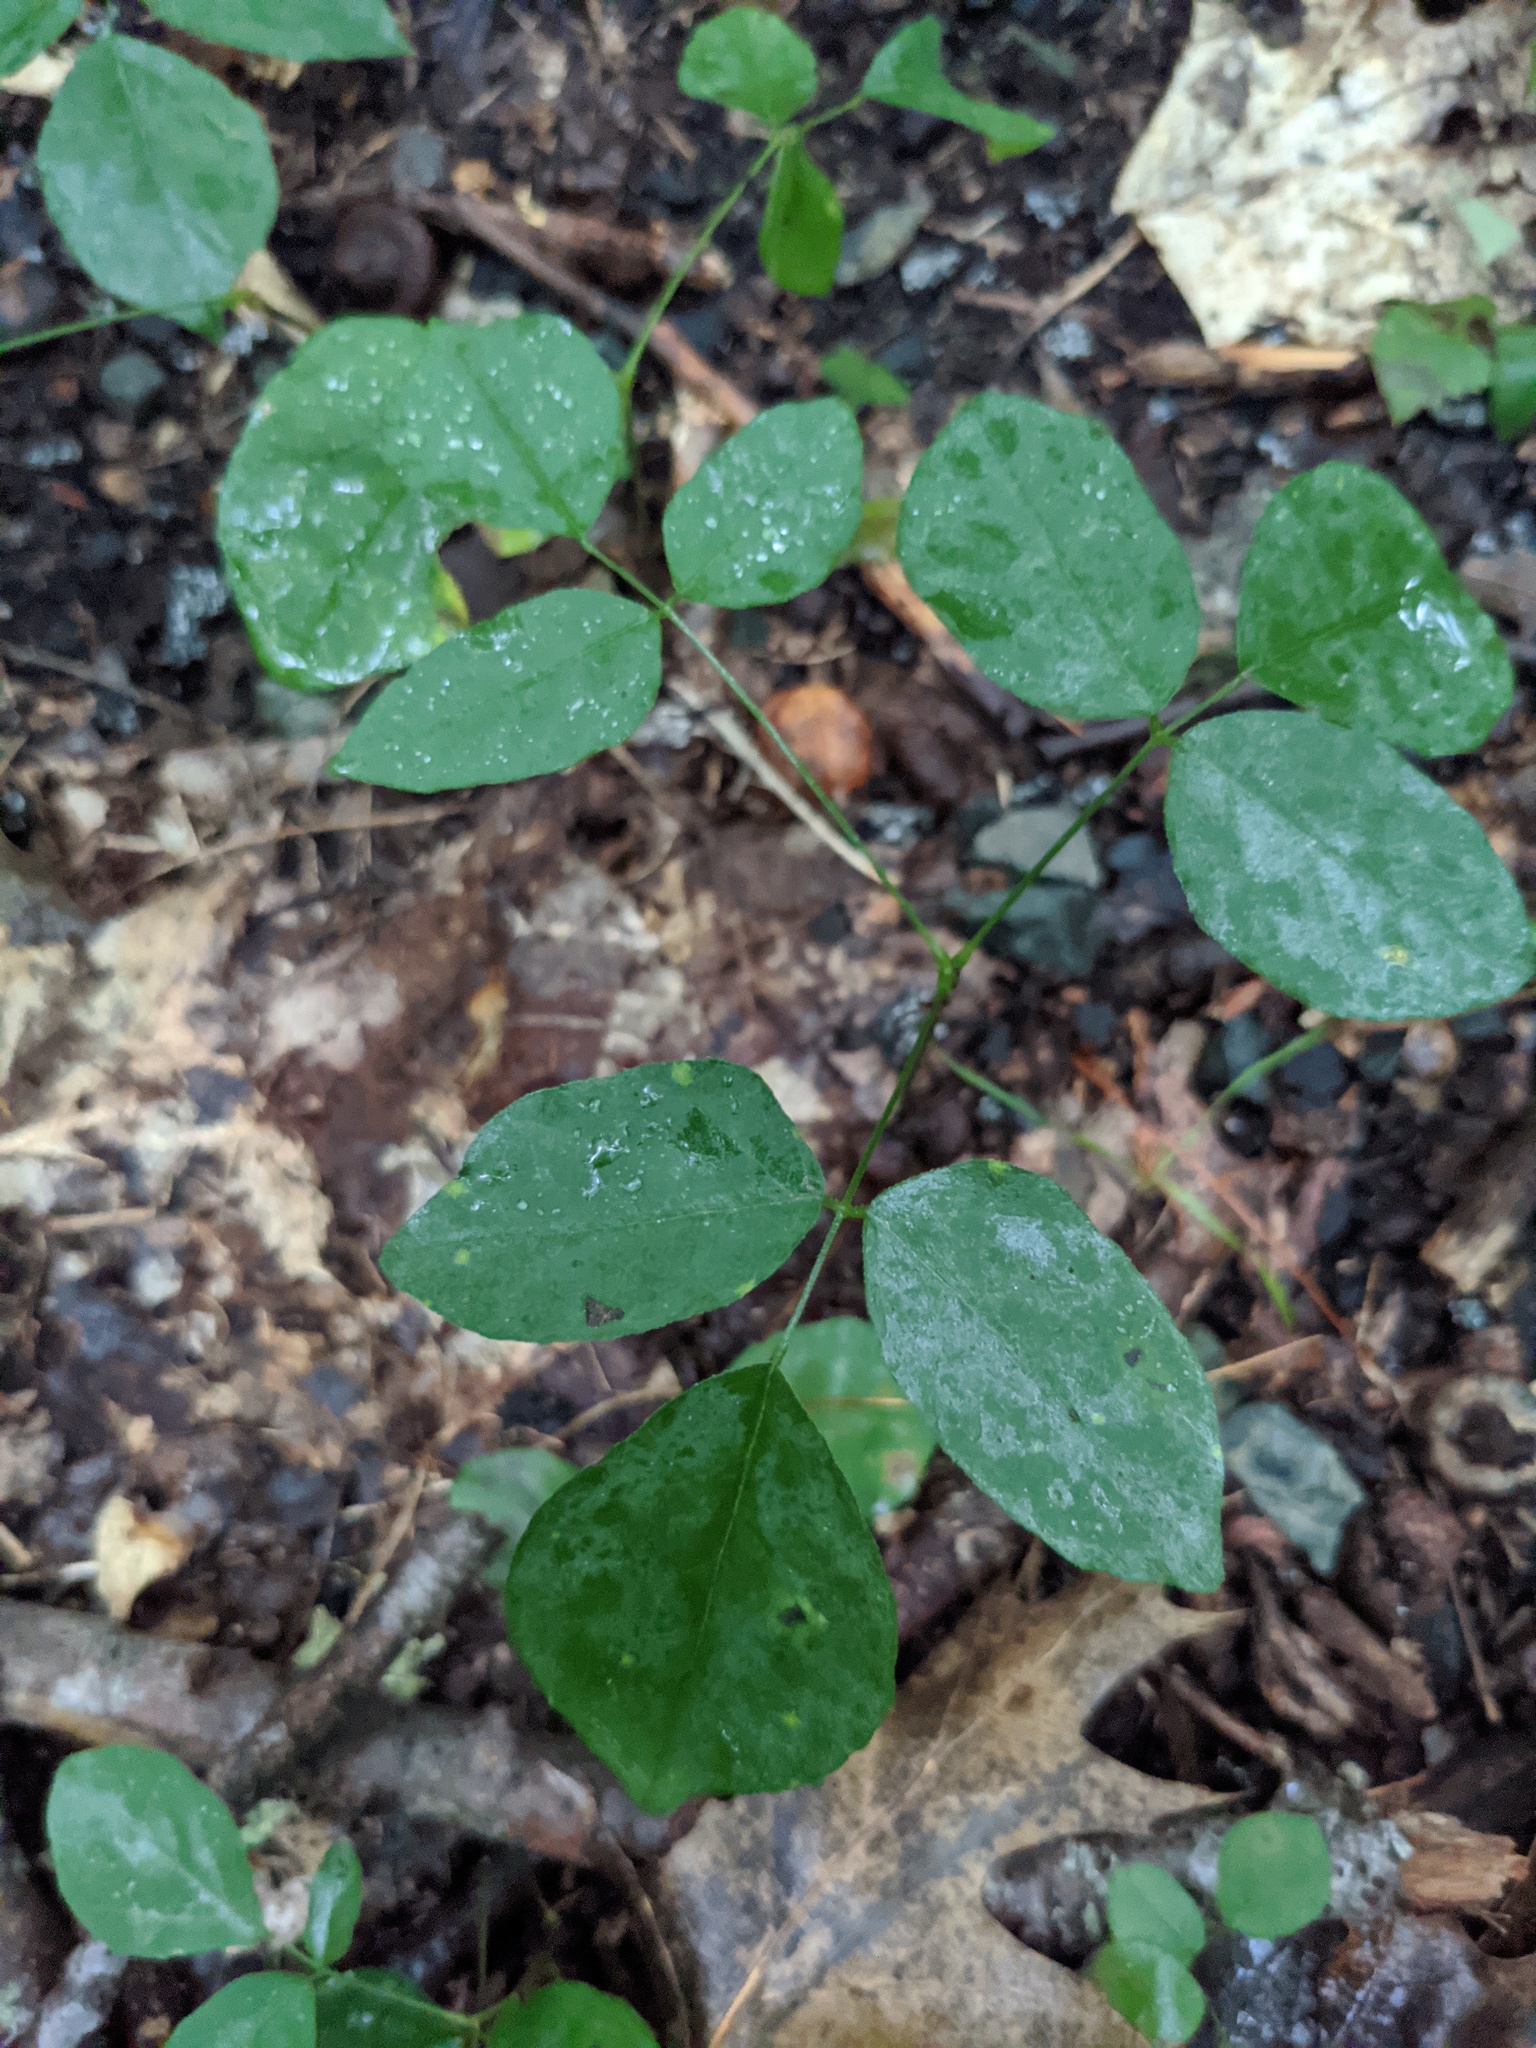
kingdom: Plantae
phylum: Tracheophyta
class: Magnoliopsida
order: Asterales
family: Asteraceae
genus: Eurybia
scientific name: Eurybia divaricata
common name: White wood aster
